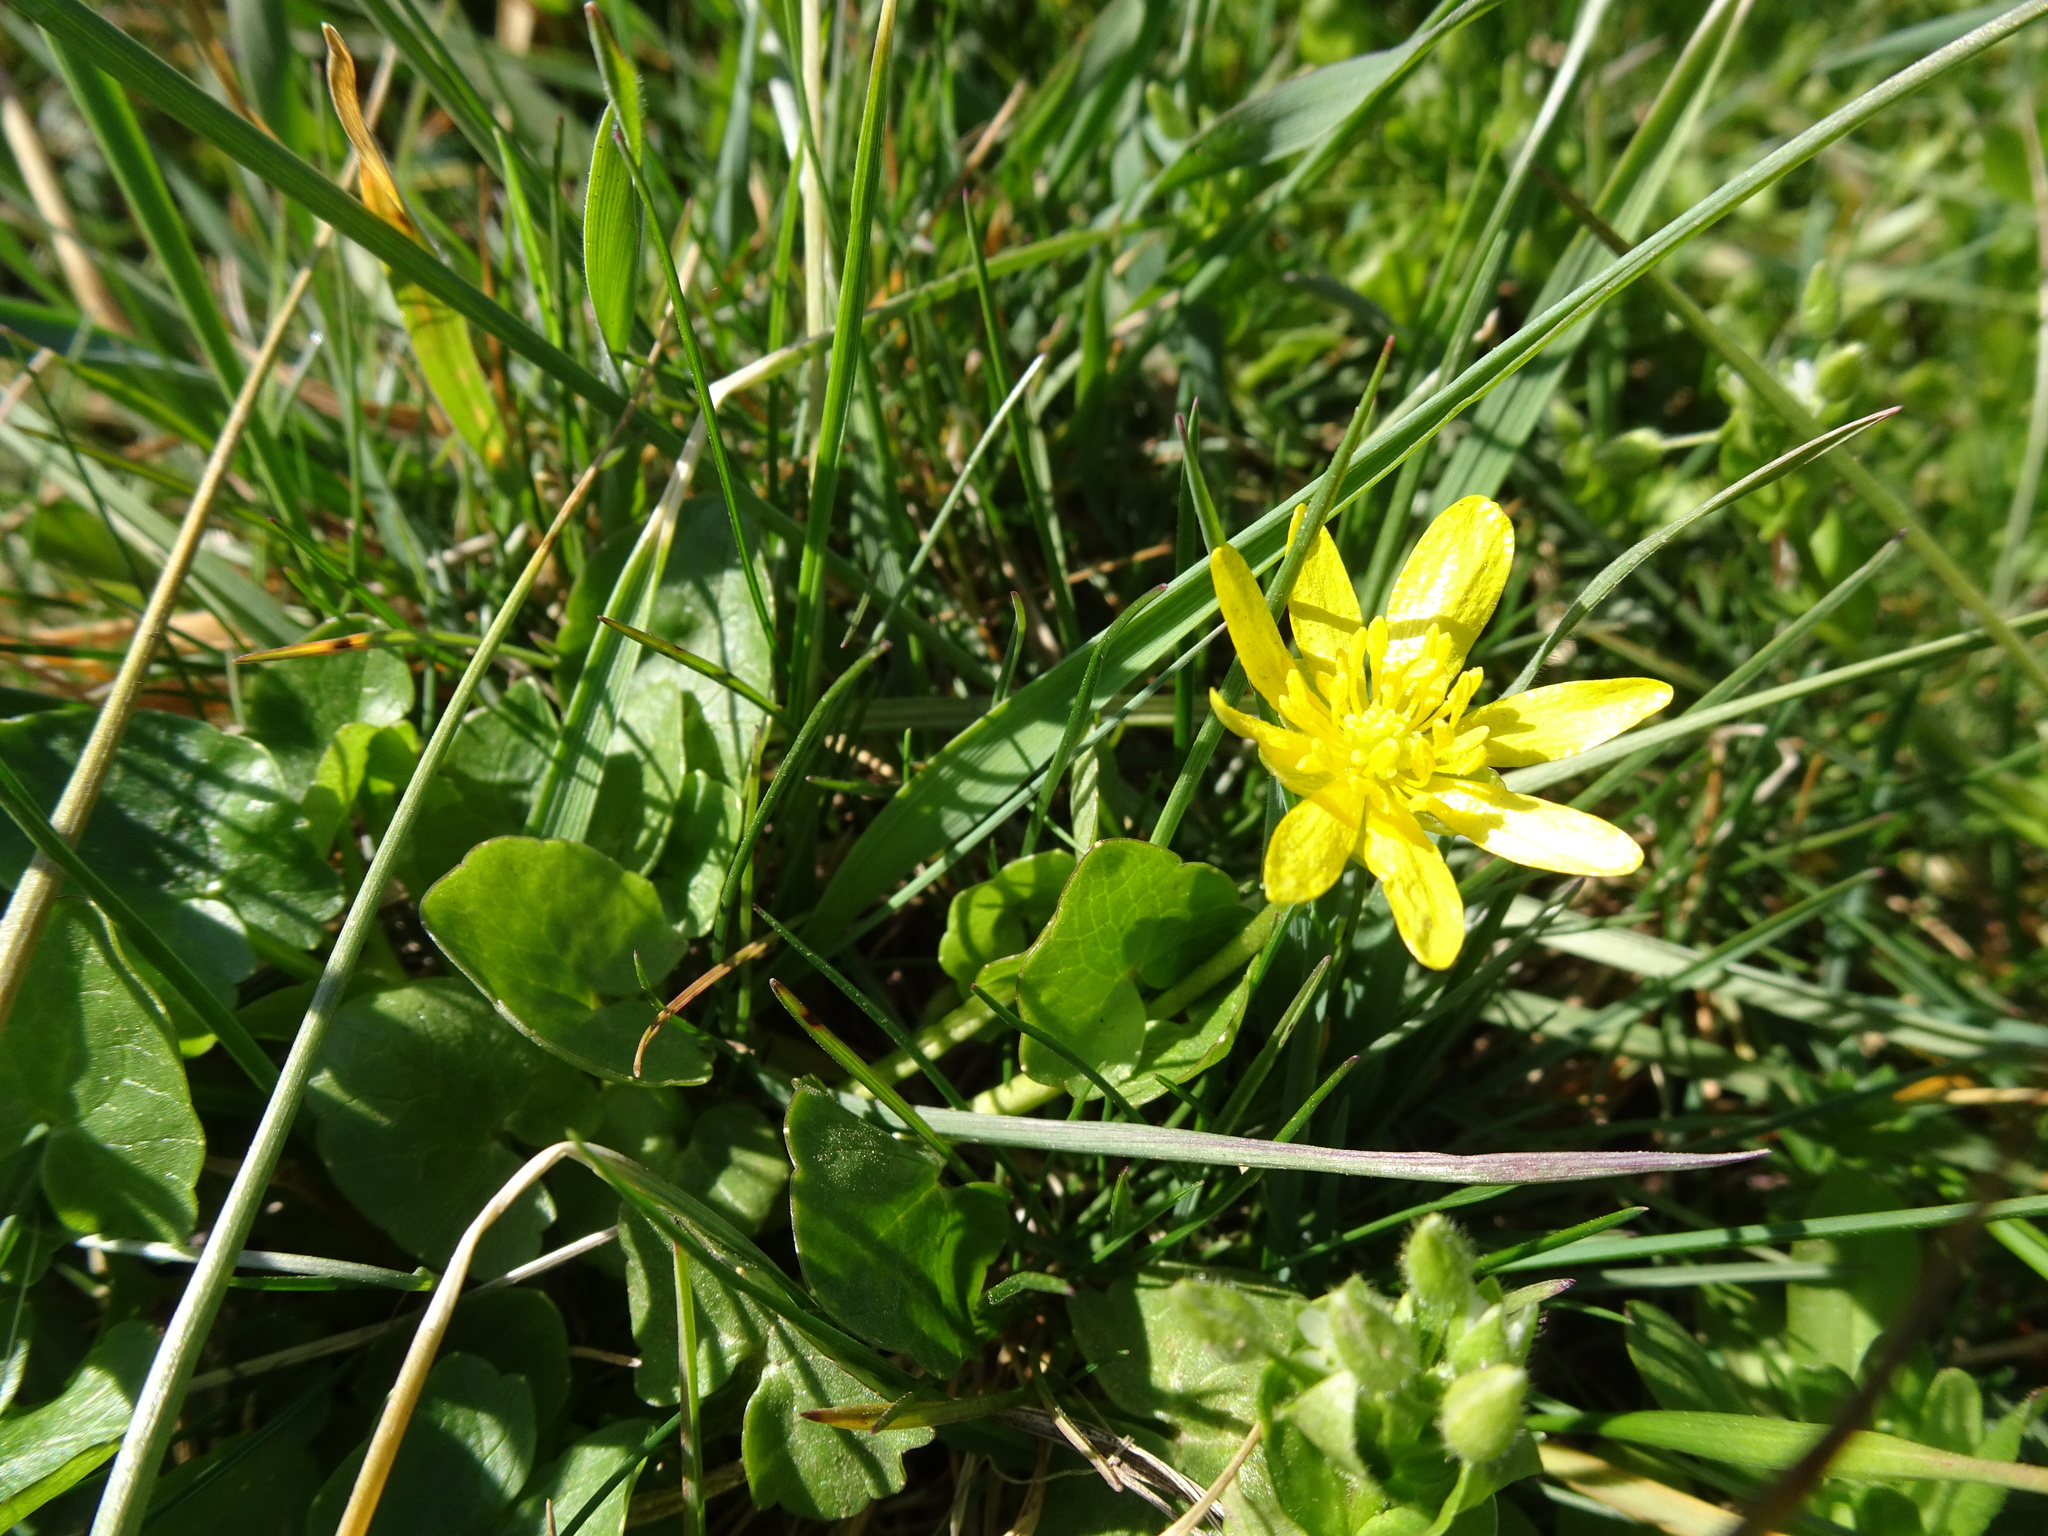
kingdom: Plantae
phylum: Tracheophyta
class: Magnoliopsida
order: Ranunculales
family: Ranunculaceae
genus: Ficaria
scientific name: Ficaria verna
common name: Lesser celandine
